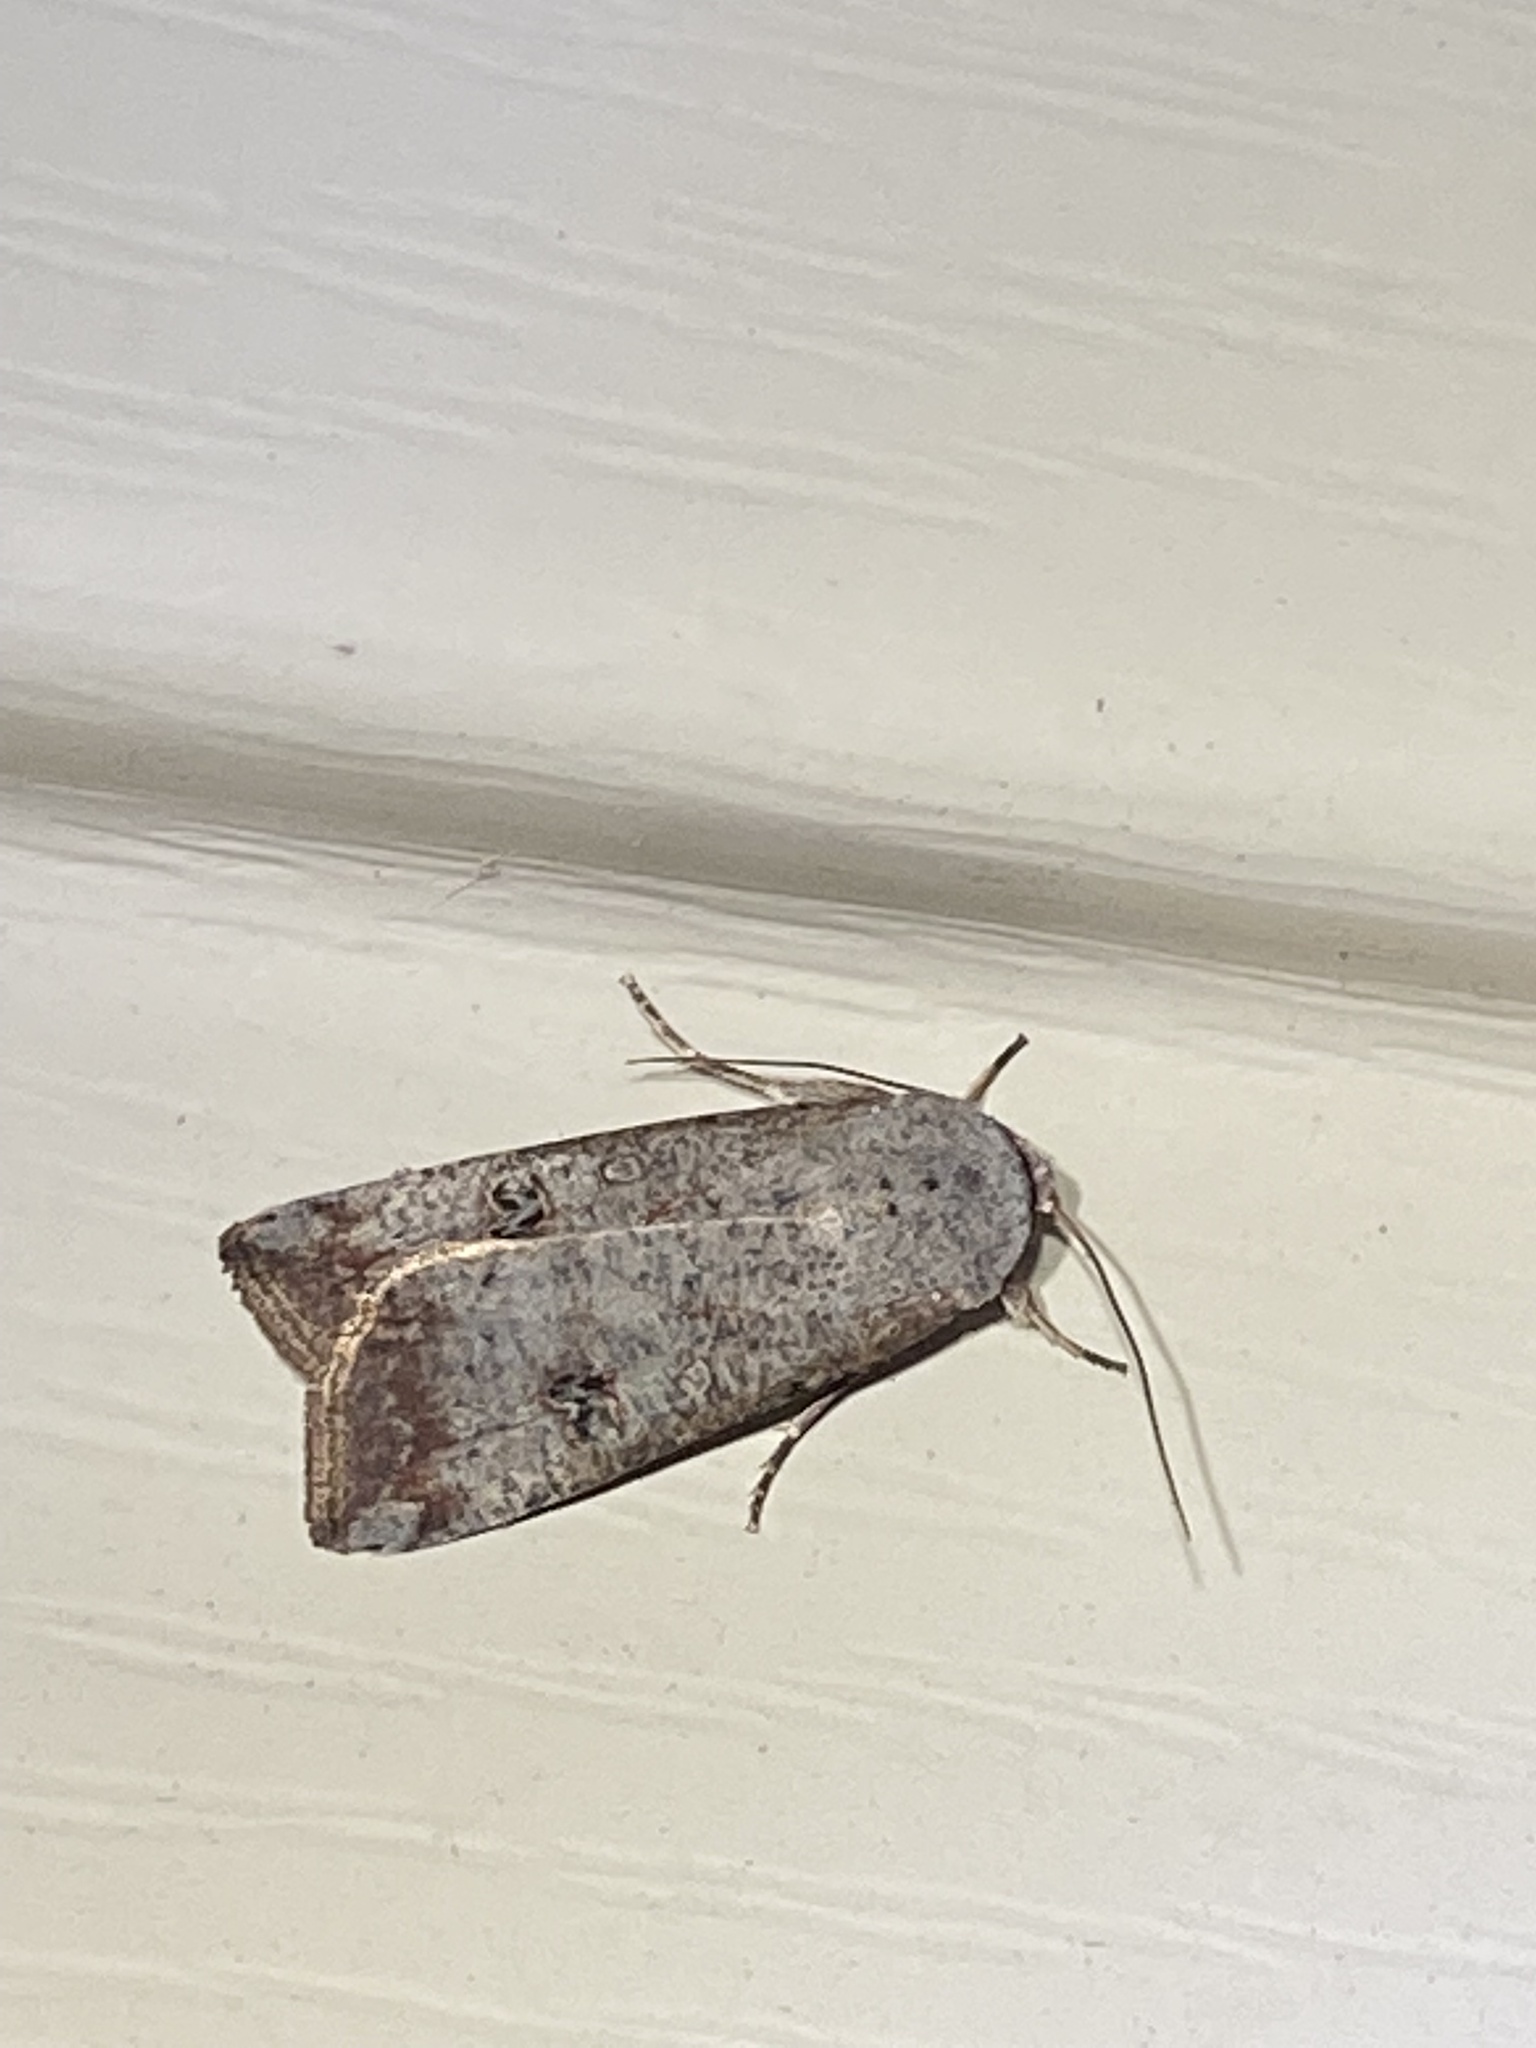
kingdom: Animalia
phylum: Arthropoda
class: Insecta
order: Lepidoptera
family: Noctuidae
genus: Anicla
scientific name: Anicla infecta
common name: Green cutworm
